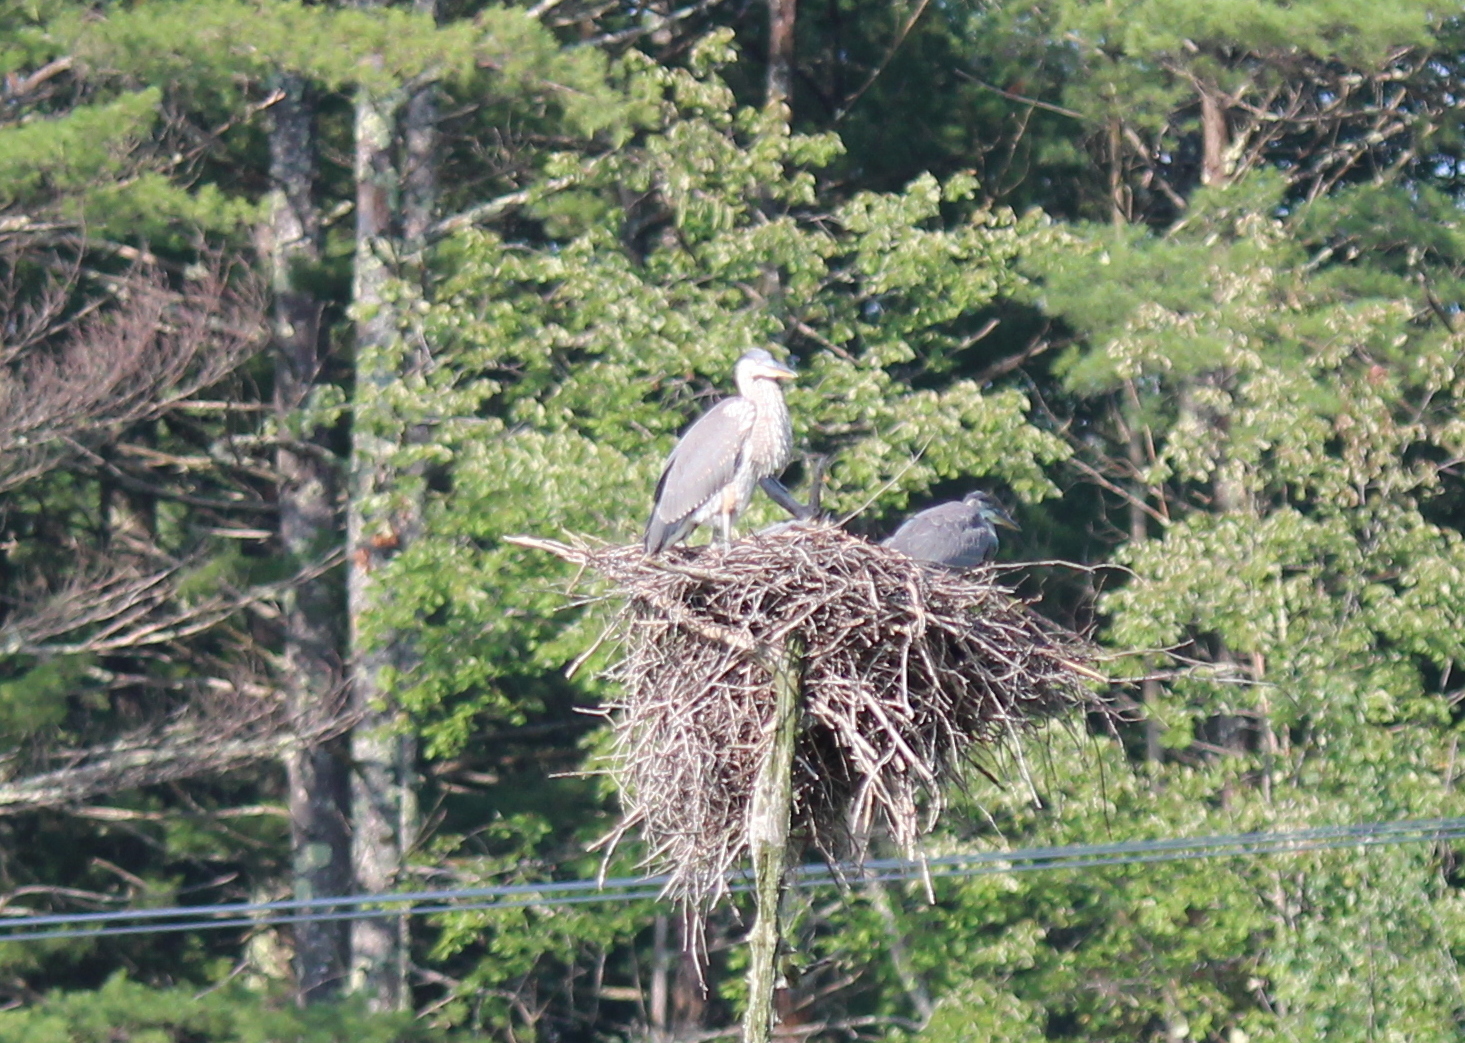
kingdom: Animalia
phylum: Chordata
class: Aves
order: Pelecaniformes
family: Ardeidae
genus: Ardea
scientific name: Ardea herodias
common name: Great blue heron
